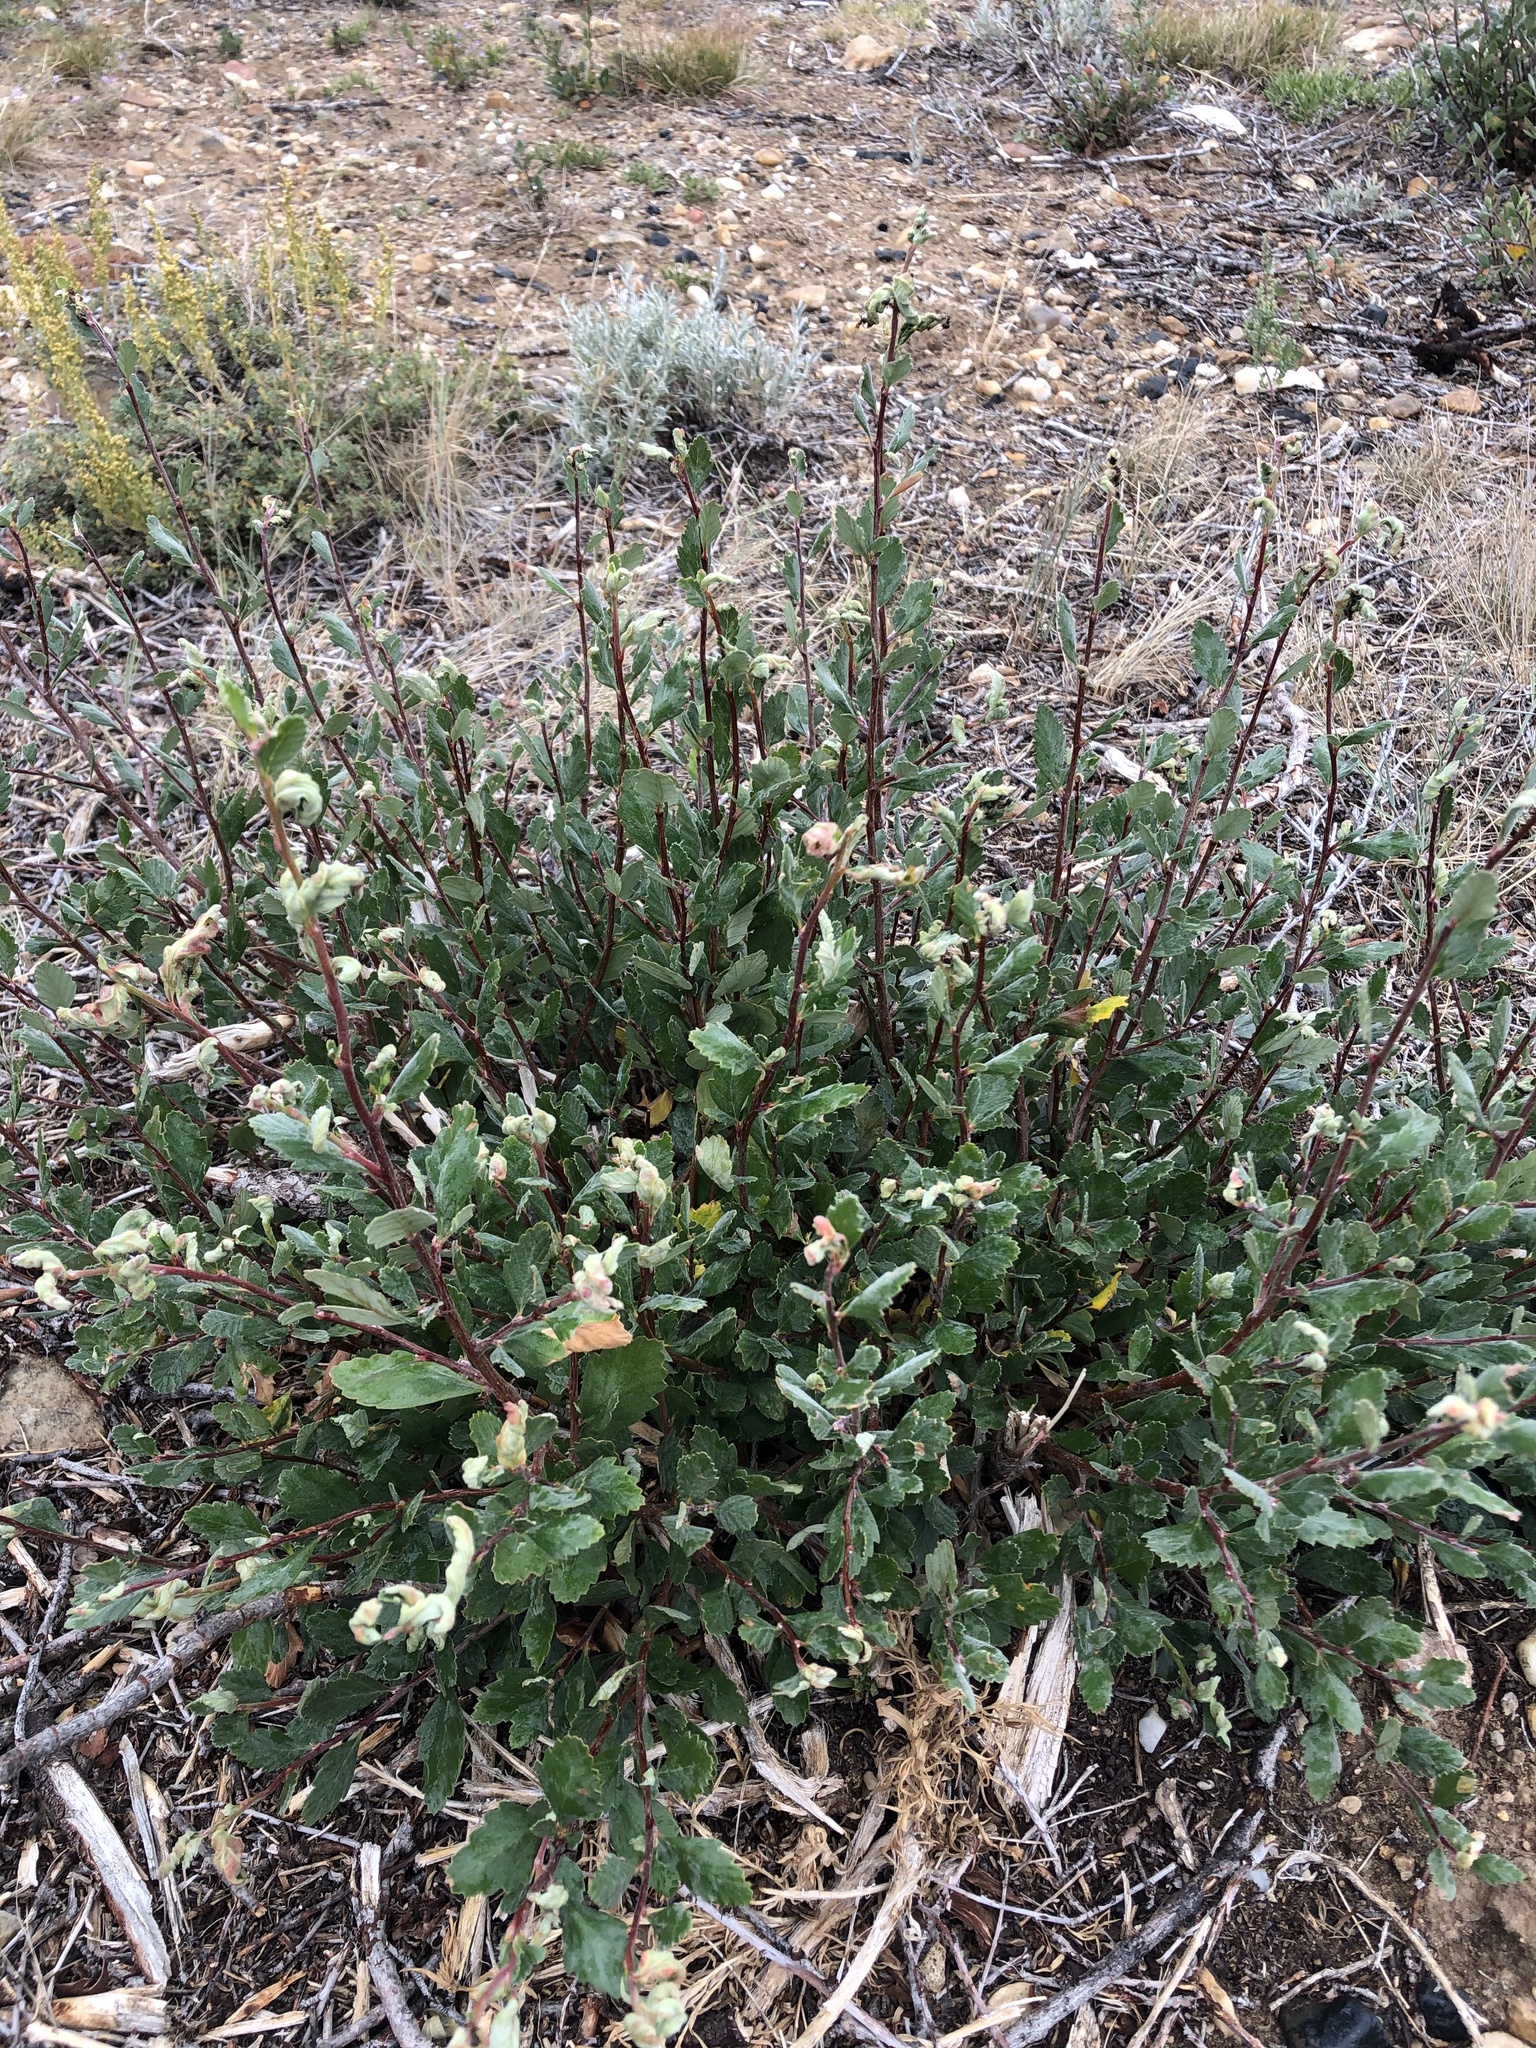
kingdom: Plantae
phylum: Tracheophyta
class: Magnoliopsida
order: Rosales
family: Rosaceae
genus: Cercocarpus
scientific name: Cercocarpus montanus
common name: Alder-leaf cercocarpus
